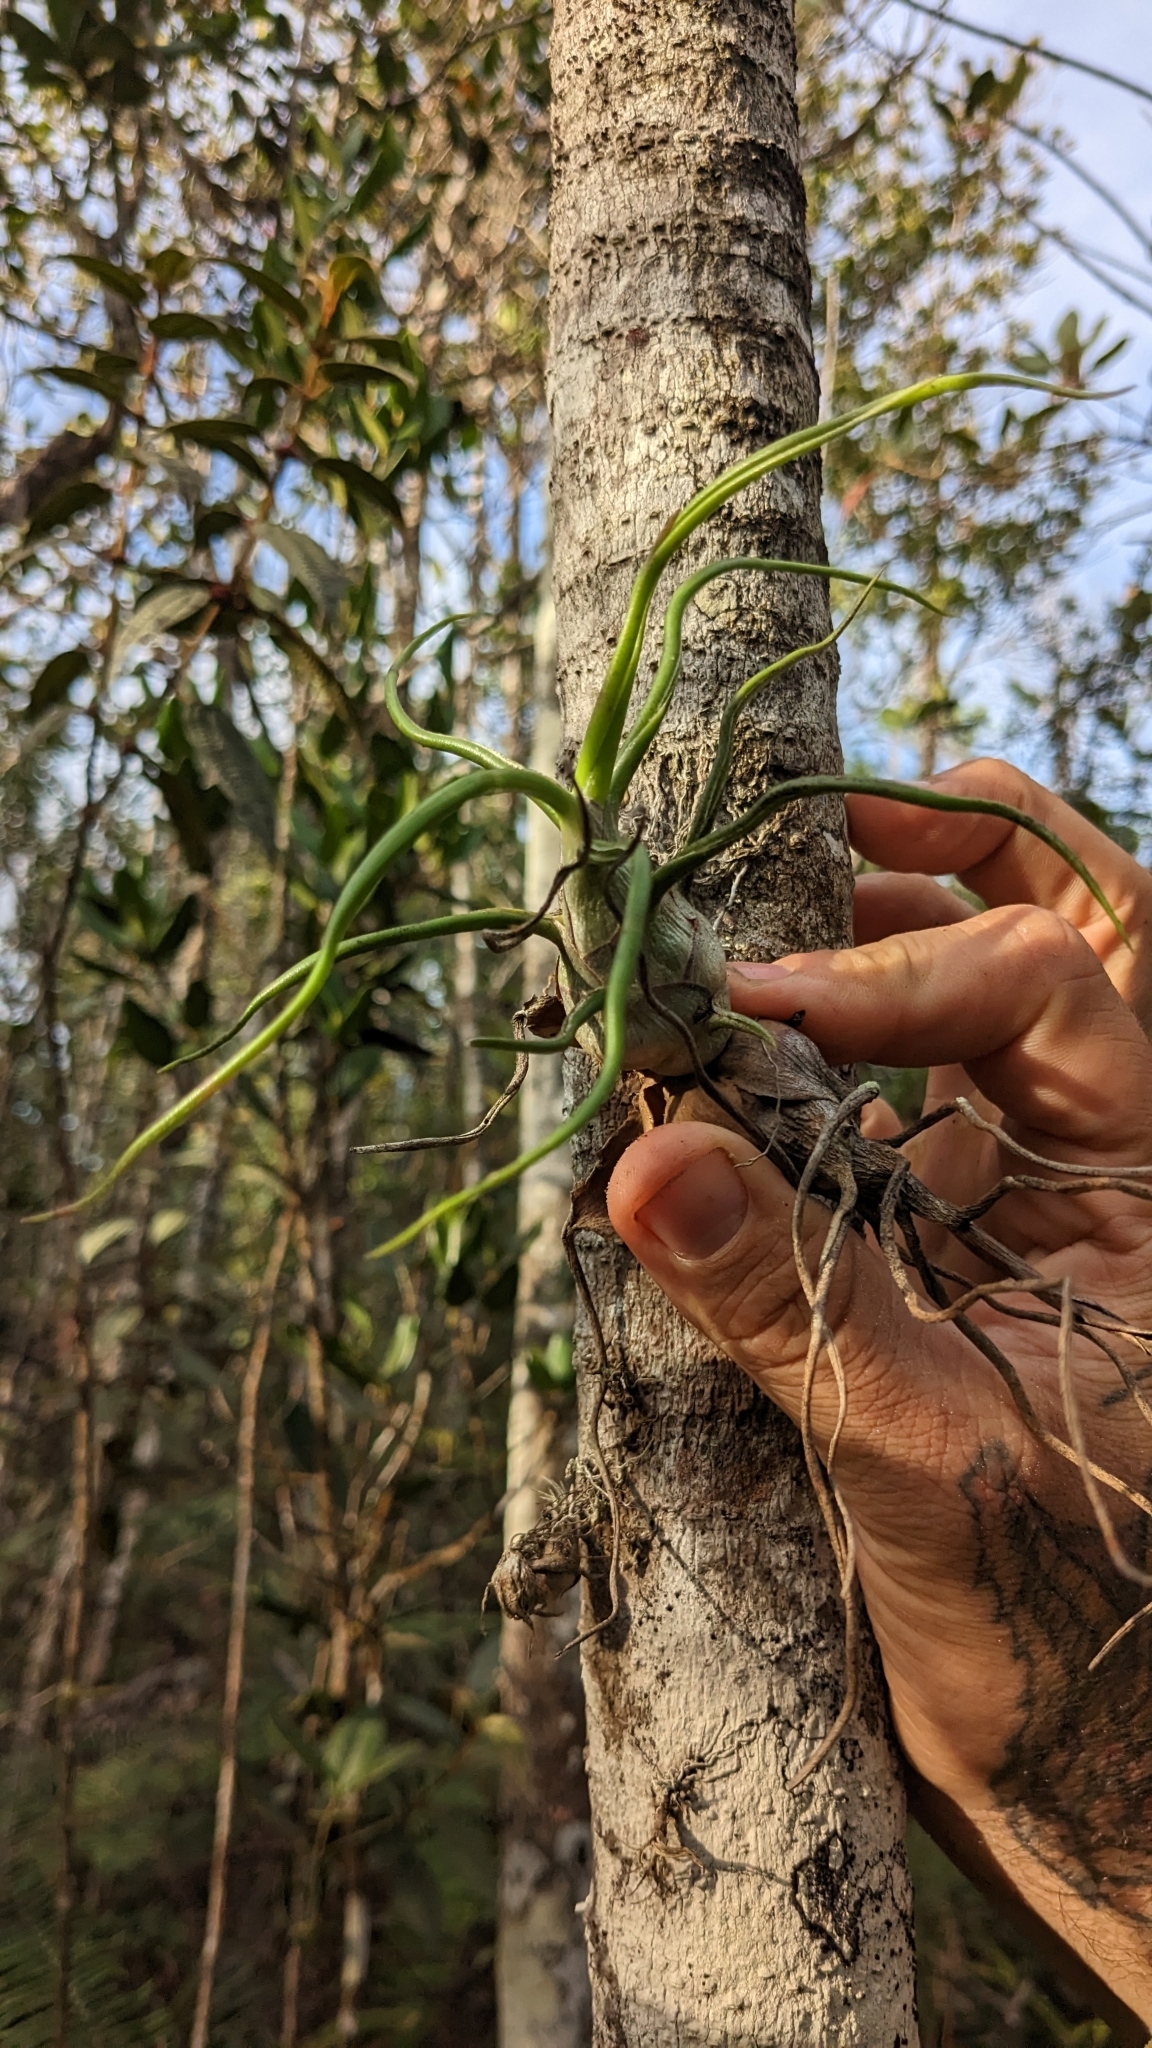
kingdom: Plantae
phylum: Tracheophyta
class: Liliopsida
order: Poales
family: Bromeliaceae
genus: Tillandsia
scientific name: Tillandsia bulbosa
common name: Bulbous airplant
